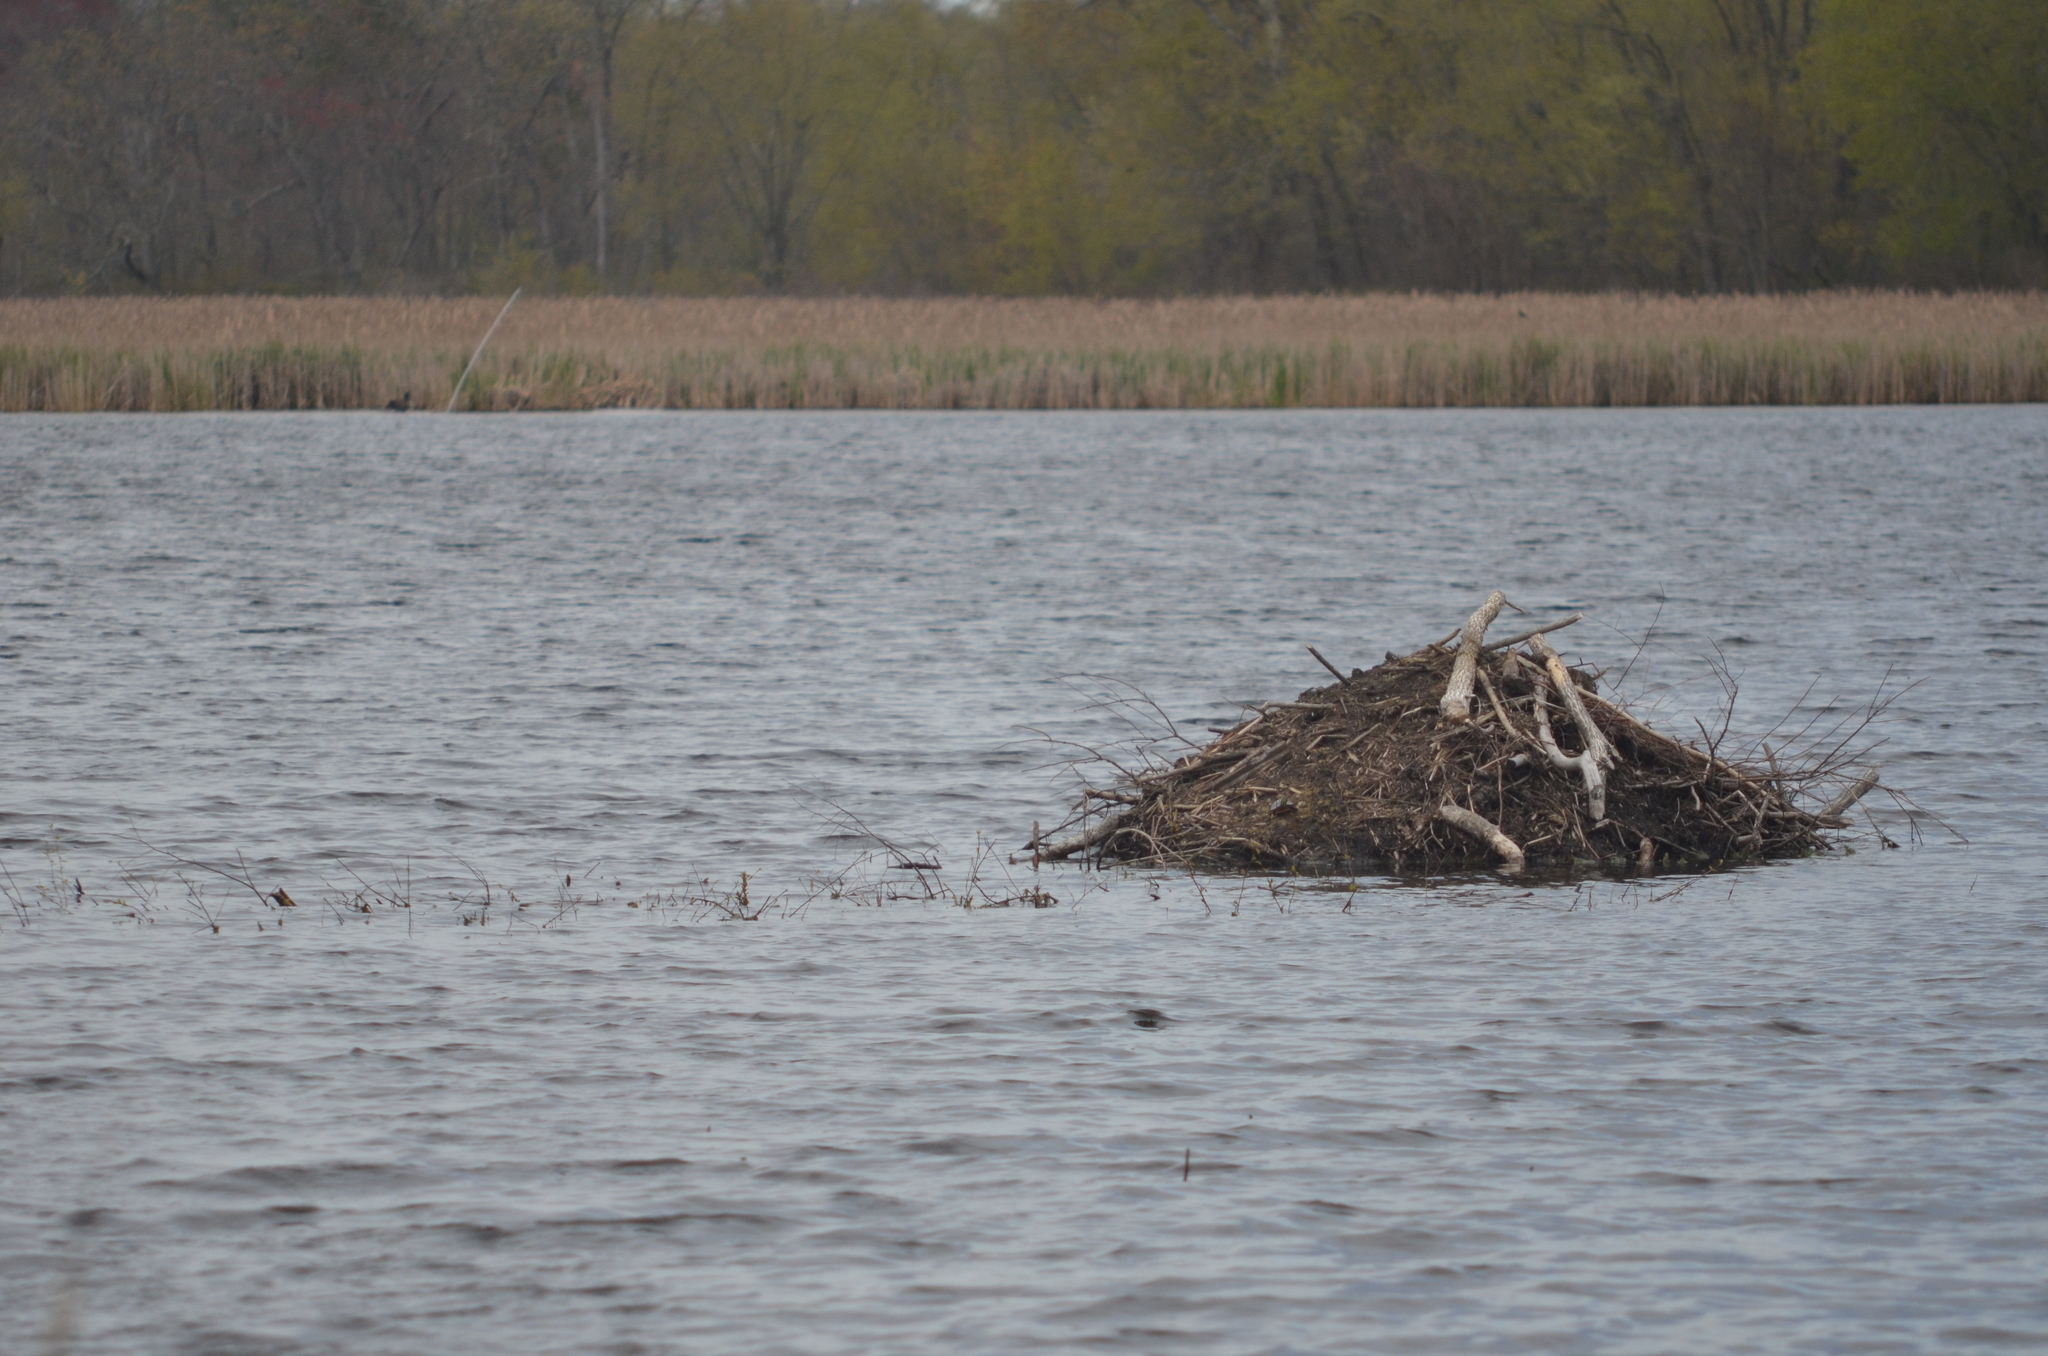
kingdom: Animalia
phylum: Chordata
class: Mammalia
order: Rodentia
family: Castoridae
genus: Castor
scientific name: Castor canadensis
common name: American beaver
